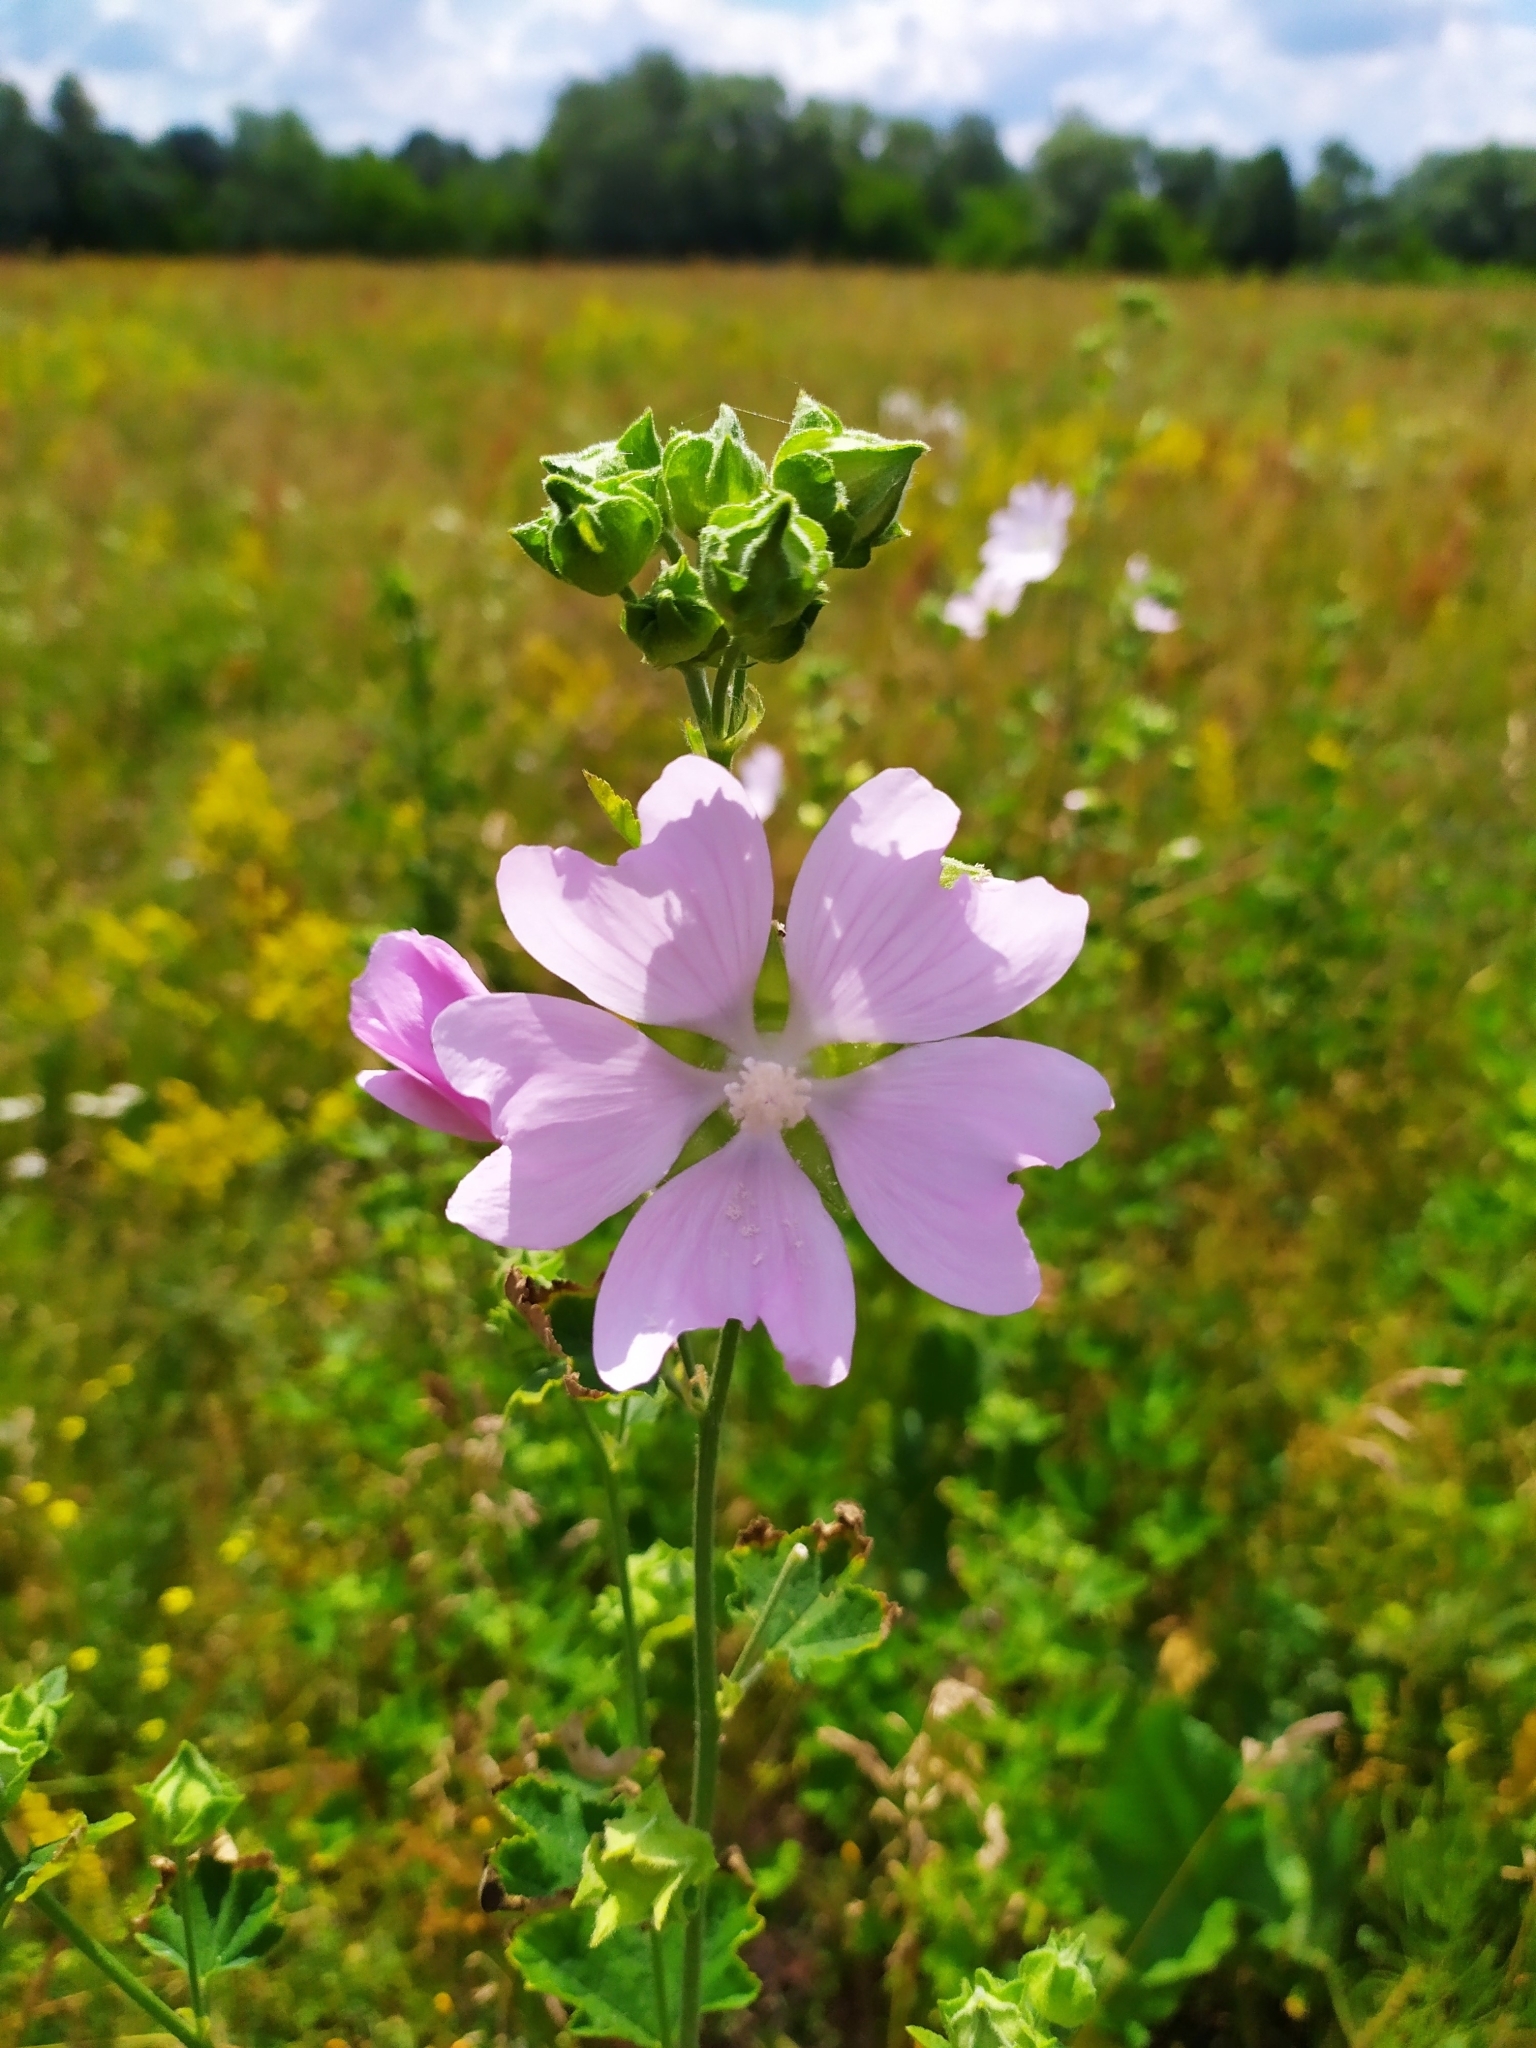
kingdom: Plantae
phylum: Tracheophyta
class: Magnoliopsida
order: Malvales
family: Malvaceae
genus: Malva
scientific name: Malva thuringiaca
